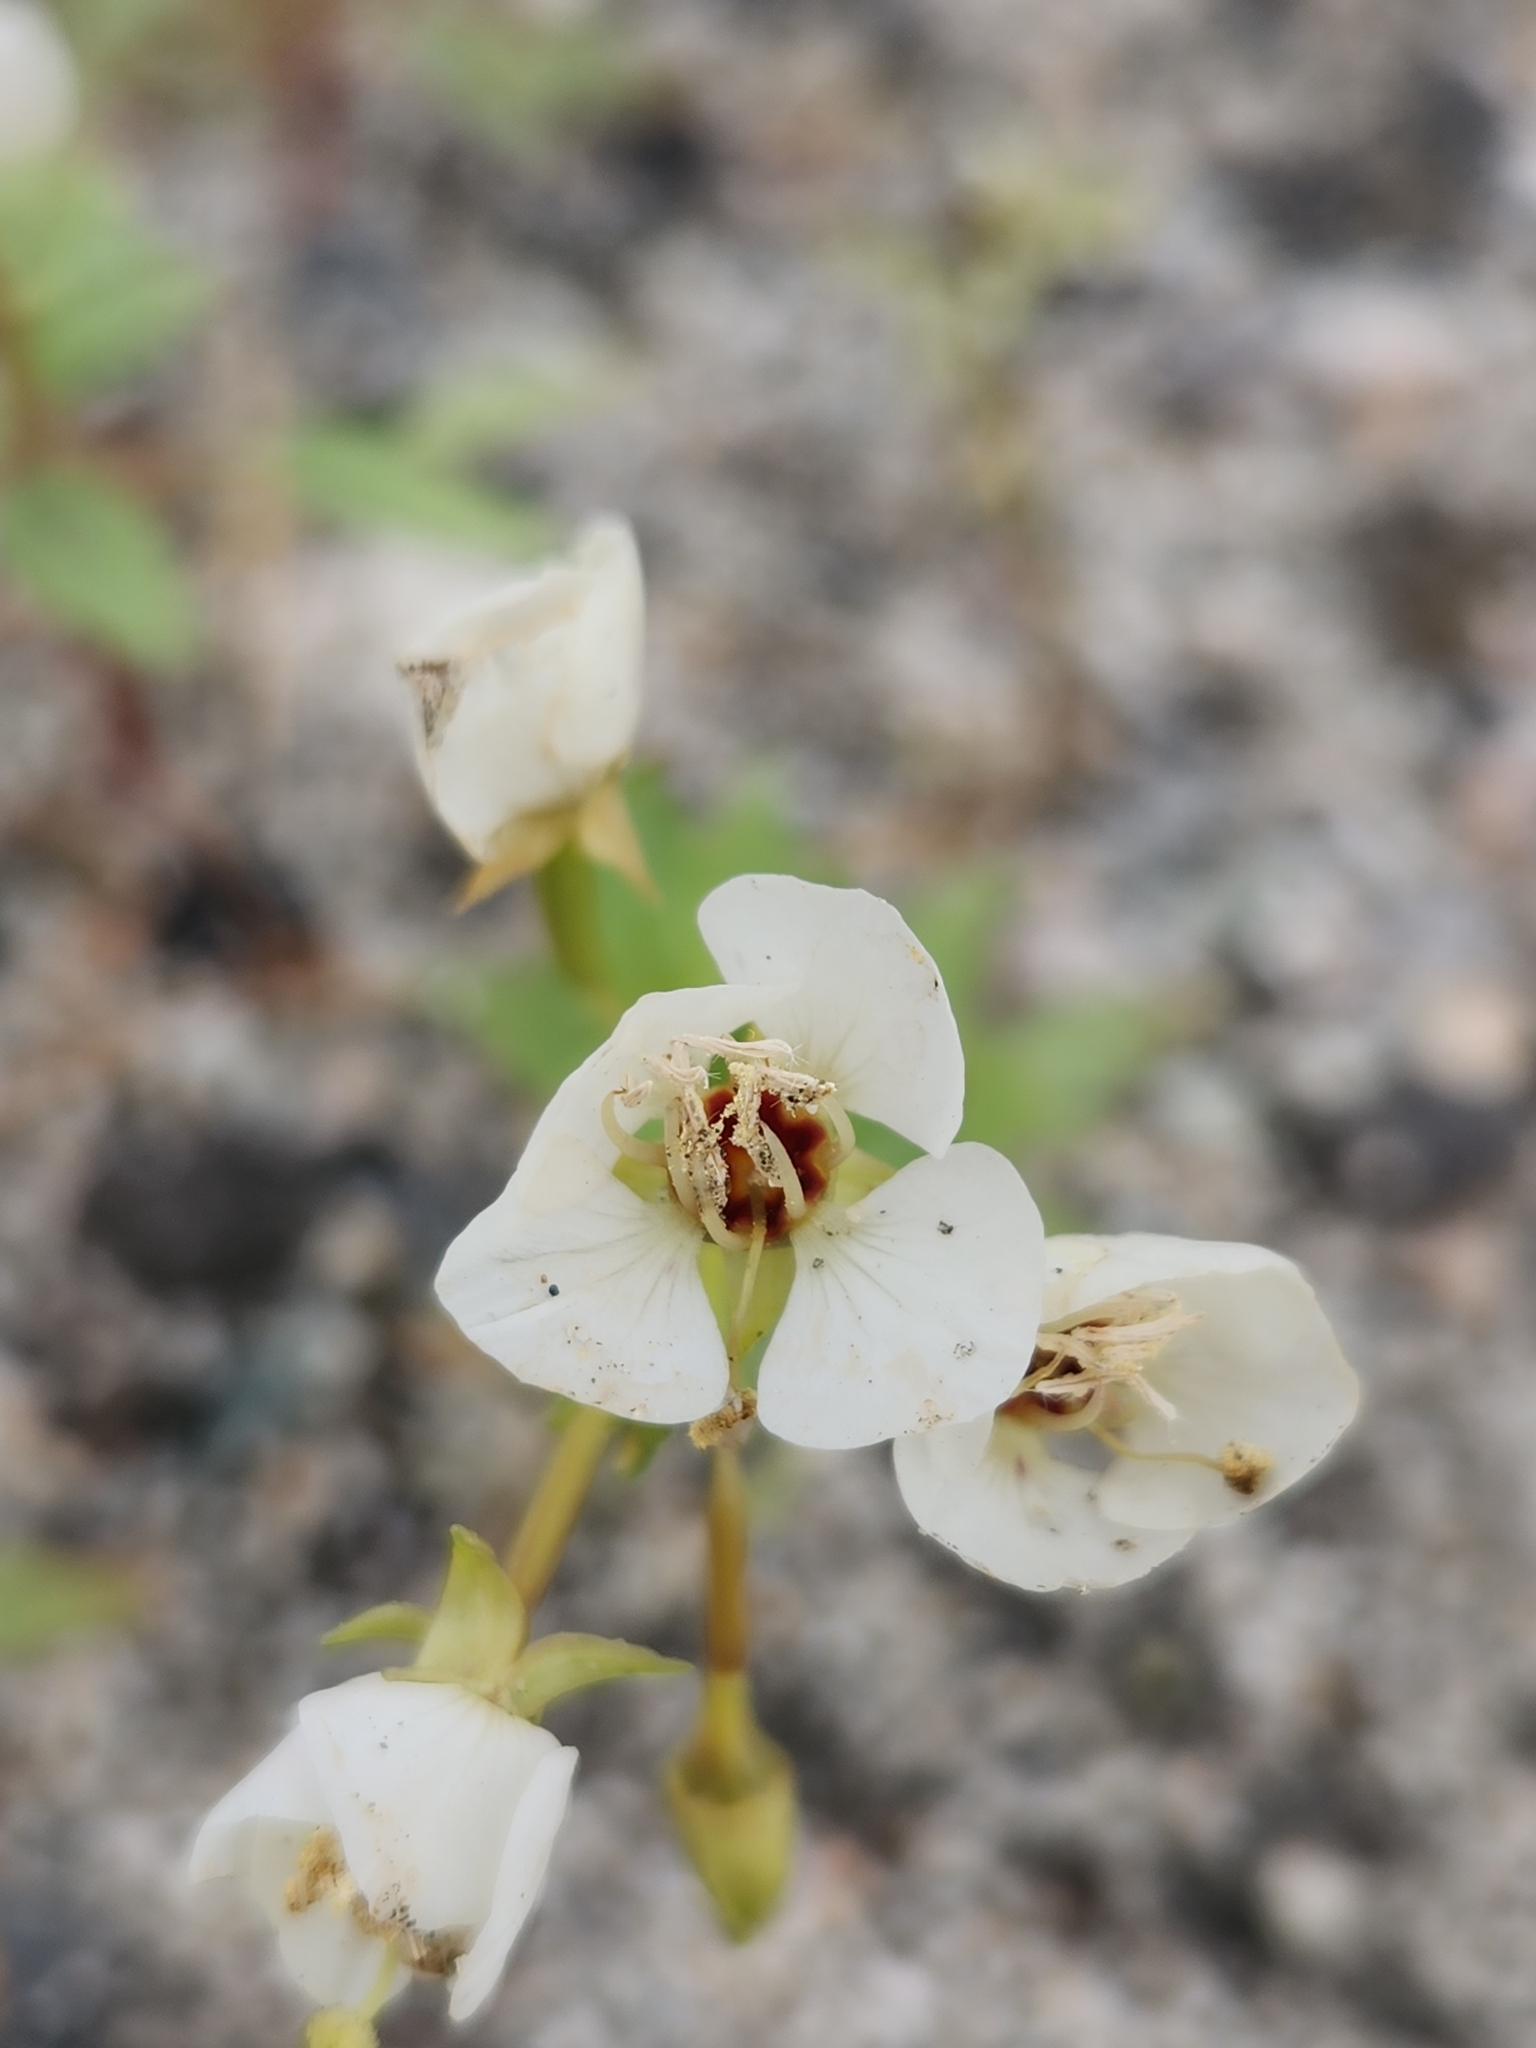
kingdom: Plantae
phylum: Tracheophyta
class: Magnoliopsida
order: Myrtales
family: Onagraceae
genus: Chylismia
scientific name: Chylismia claviformis
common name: Browneyes
